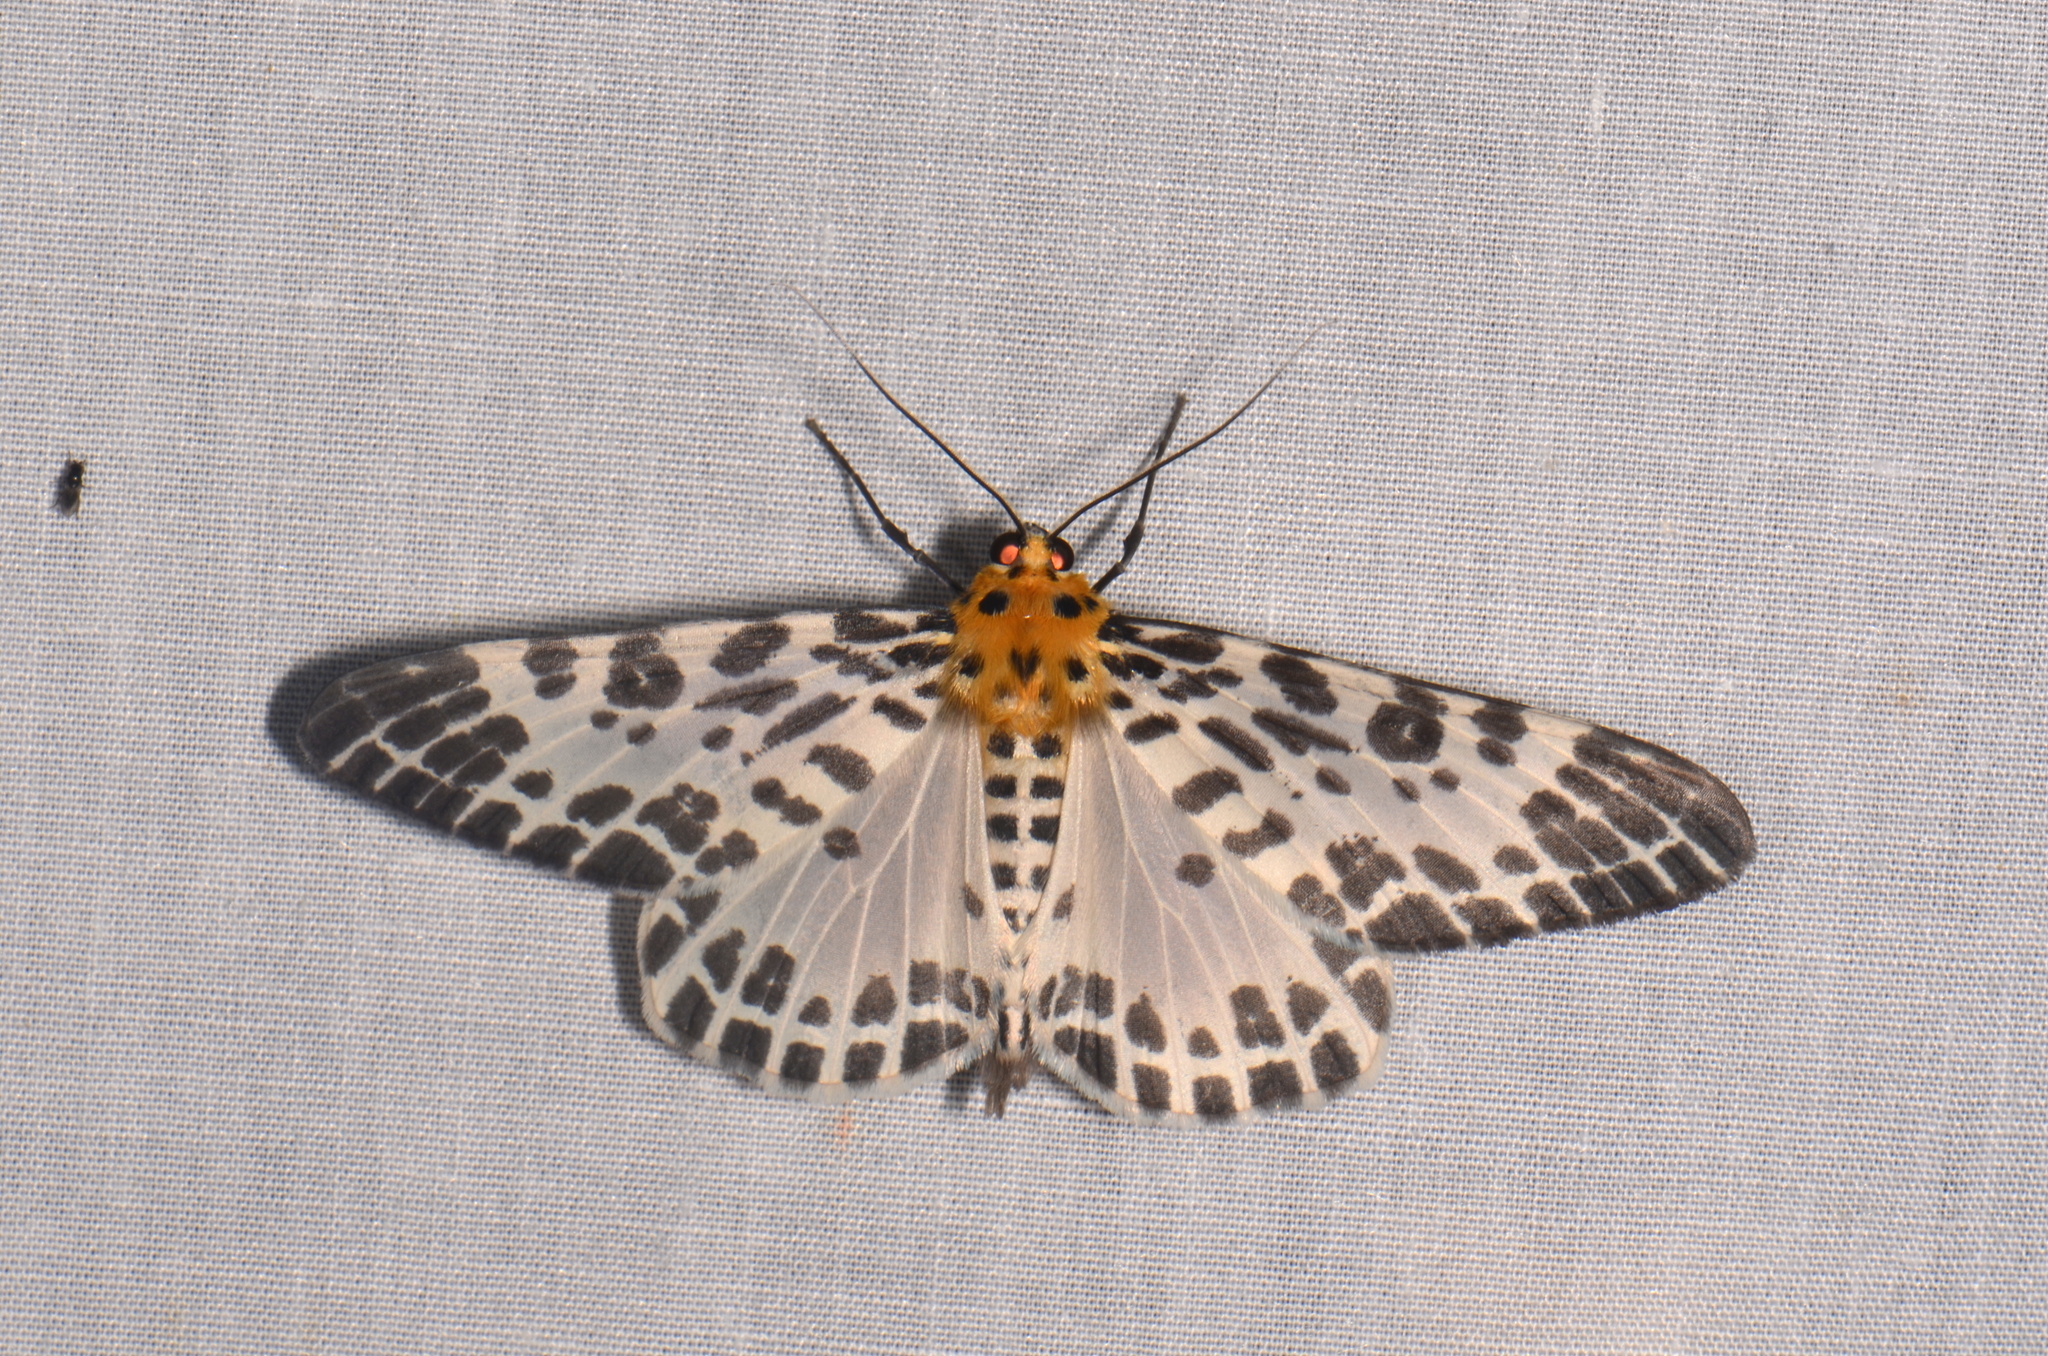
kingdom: Animalia
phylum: Arthropoda
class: Insecta
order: Lepidoptera
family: Geometridae
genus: Pogonopygia
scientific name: Pogonopygia nigralbata
